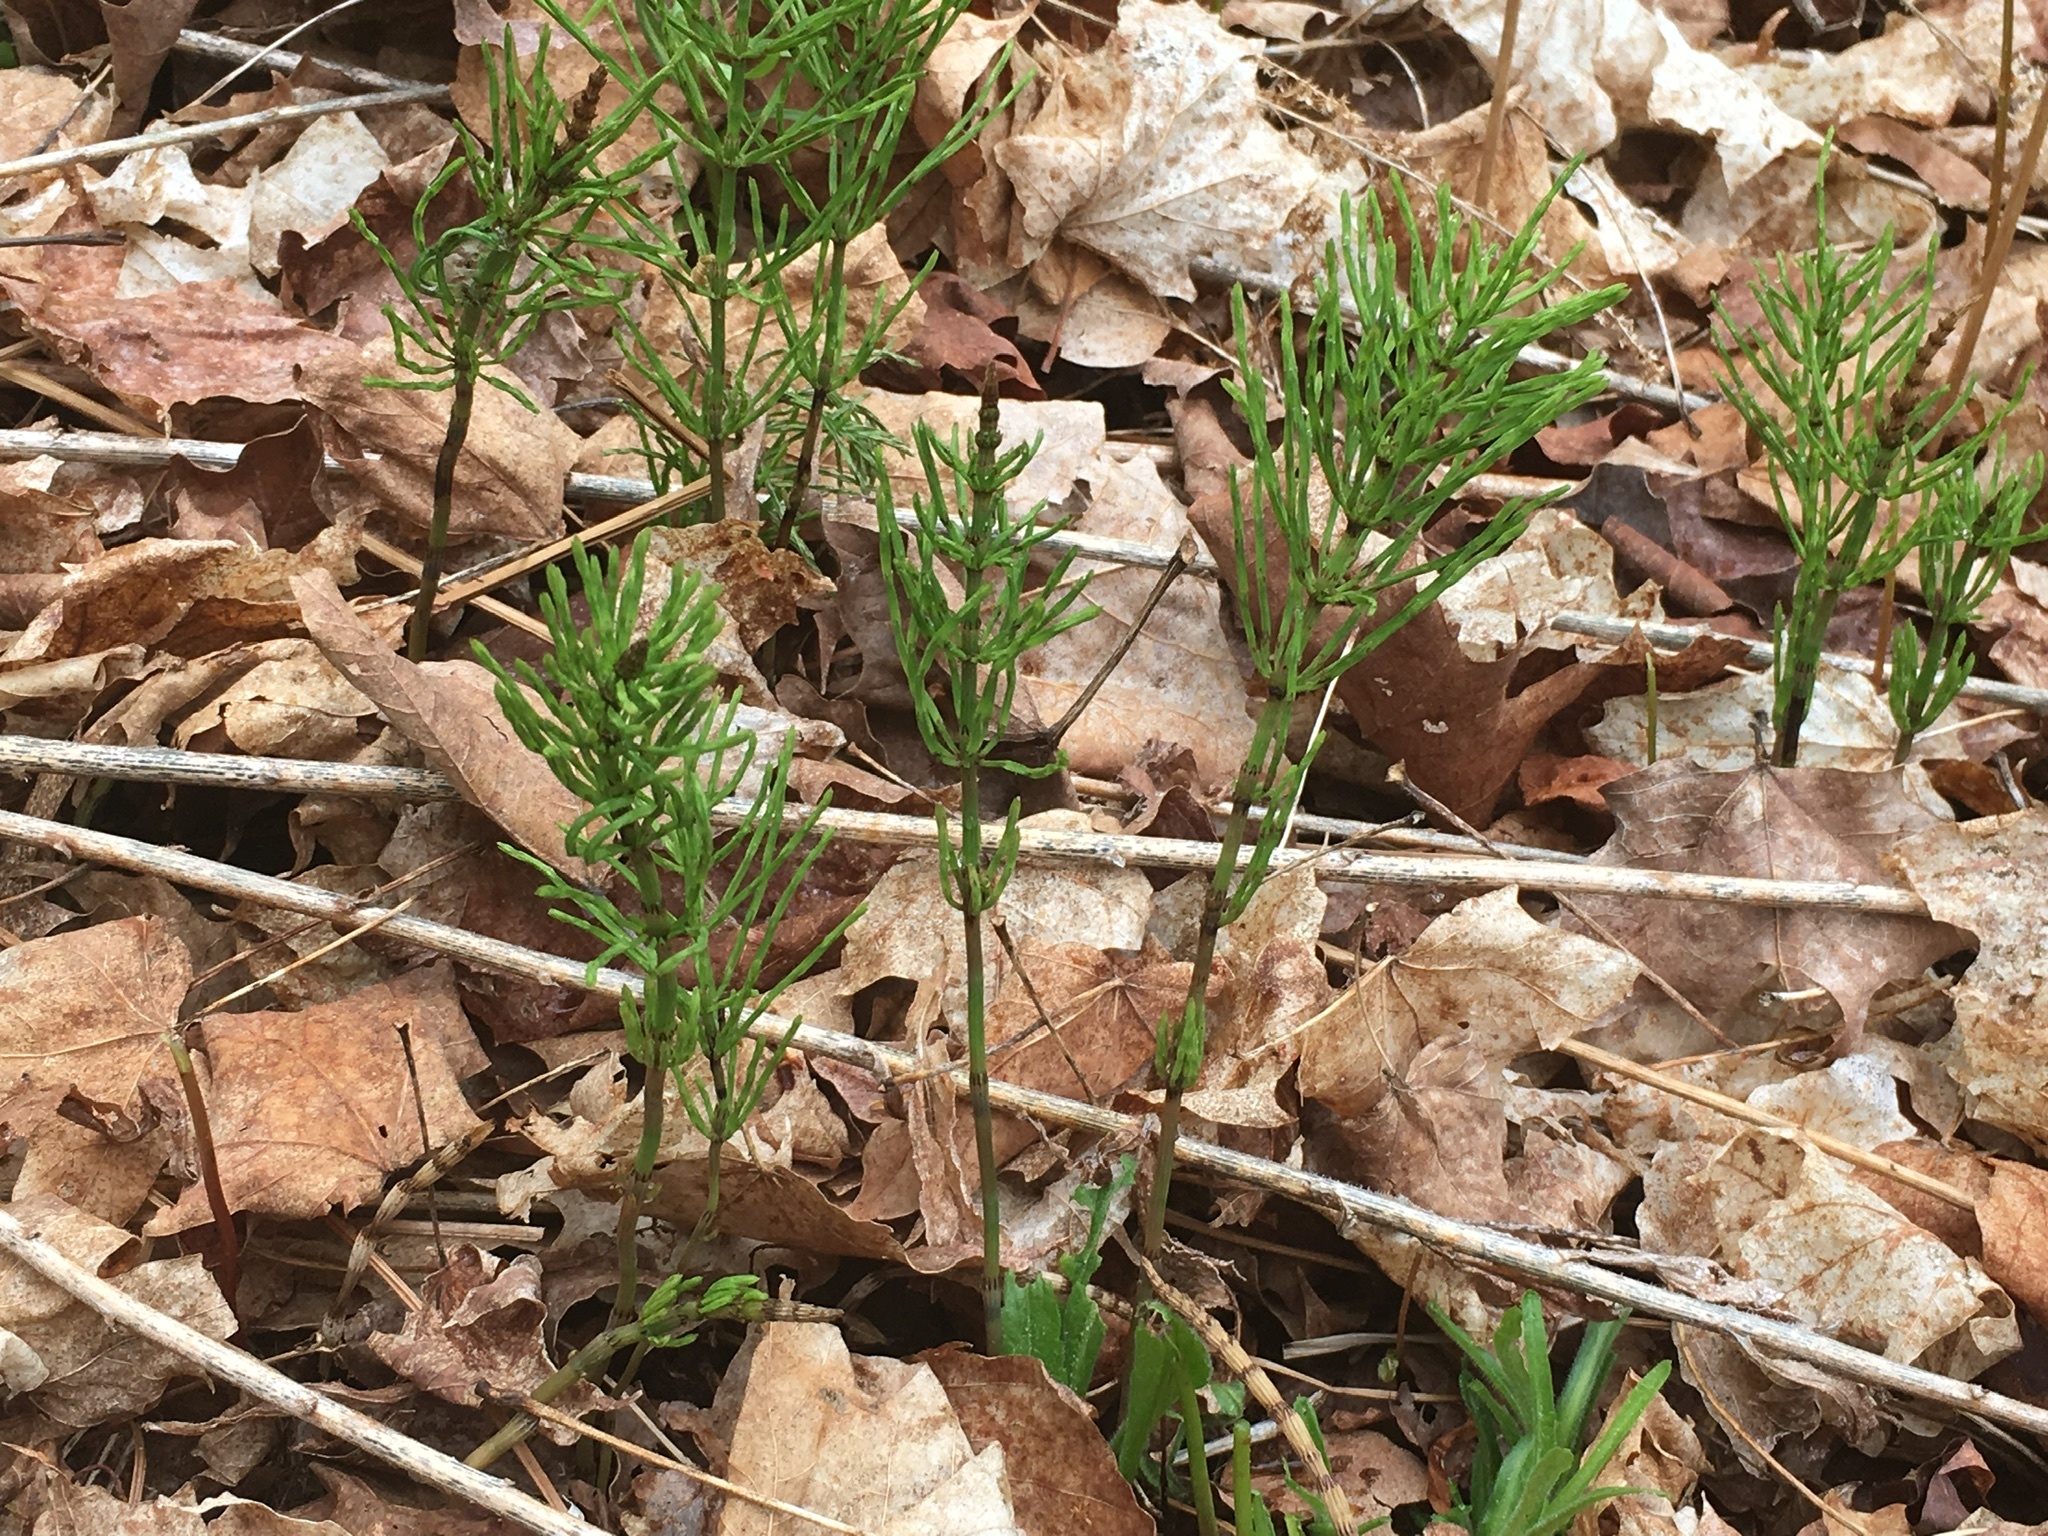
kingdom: Plantae
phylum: Tracheophyta
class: Polypodiopsida
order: Equisetales
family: Equisetaceae
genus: Equisetum
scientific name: Equisetum arvense
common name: Field horsetail
